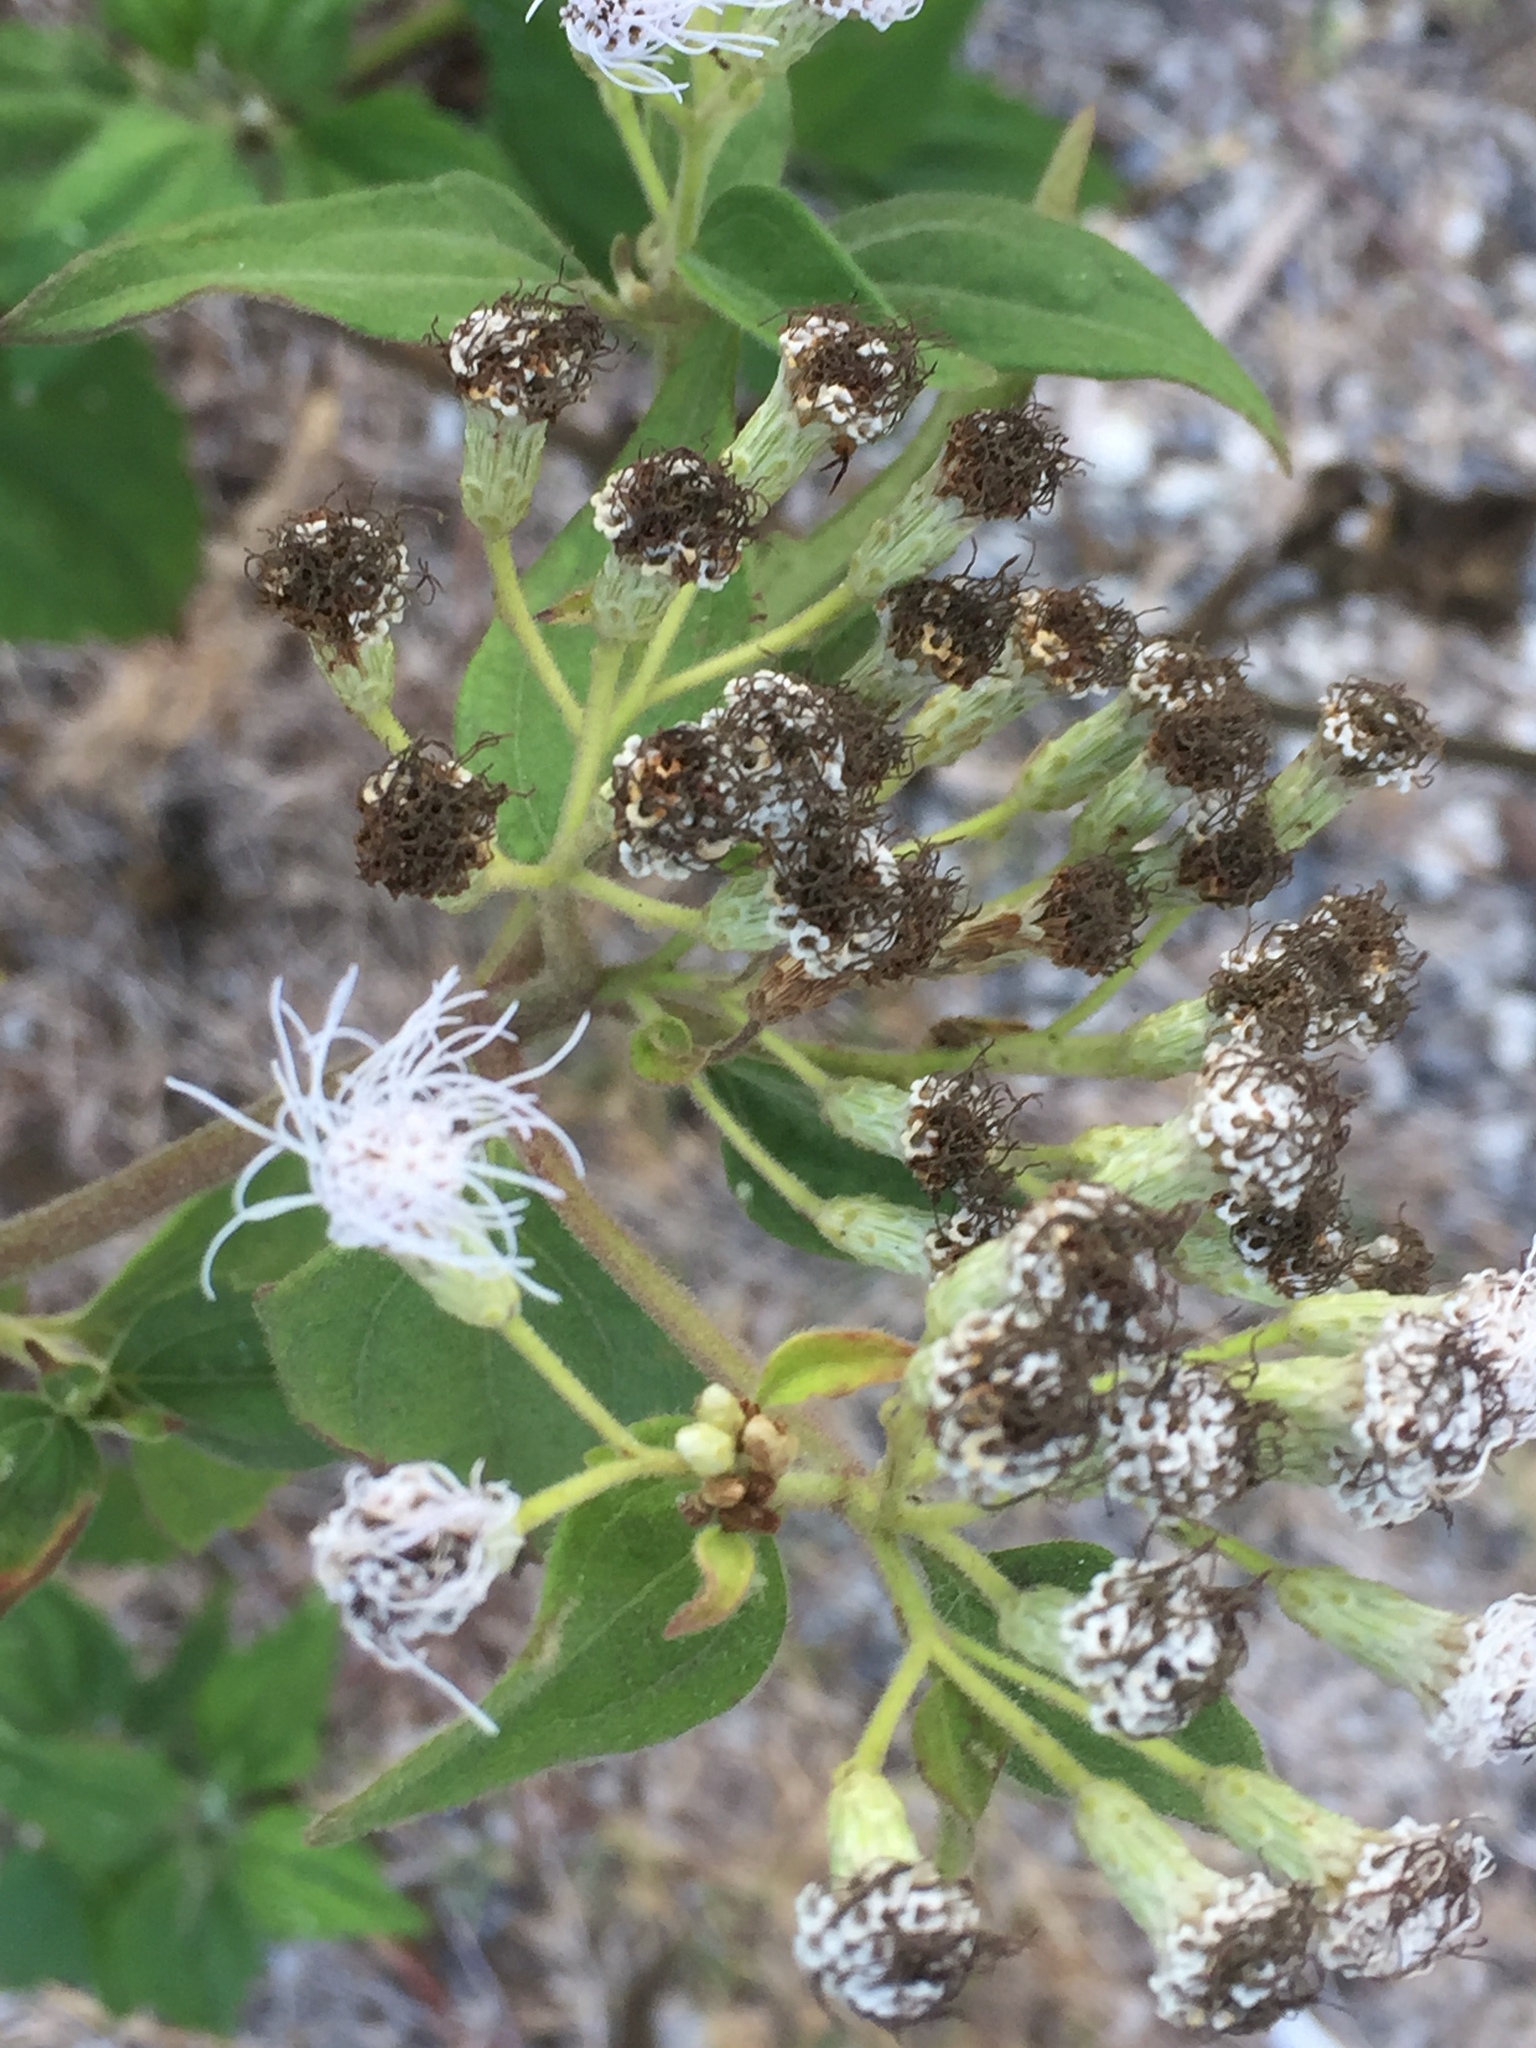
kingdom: Plantae
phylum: Tracheophyta
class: Magnoliopsida
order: Asterales
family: Asteraceae
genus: Chromolaena
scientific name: Chromolaena odorata
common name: Siamweed
